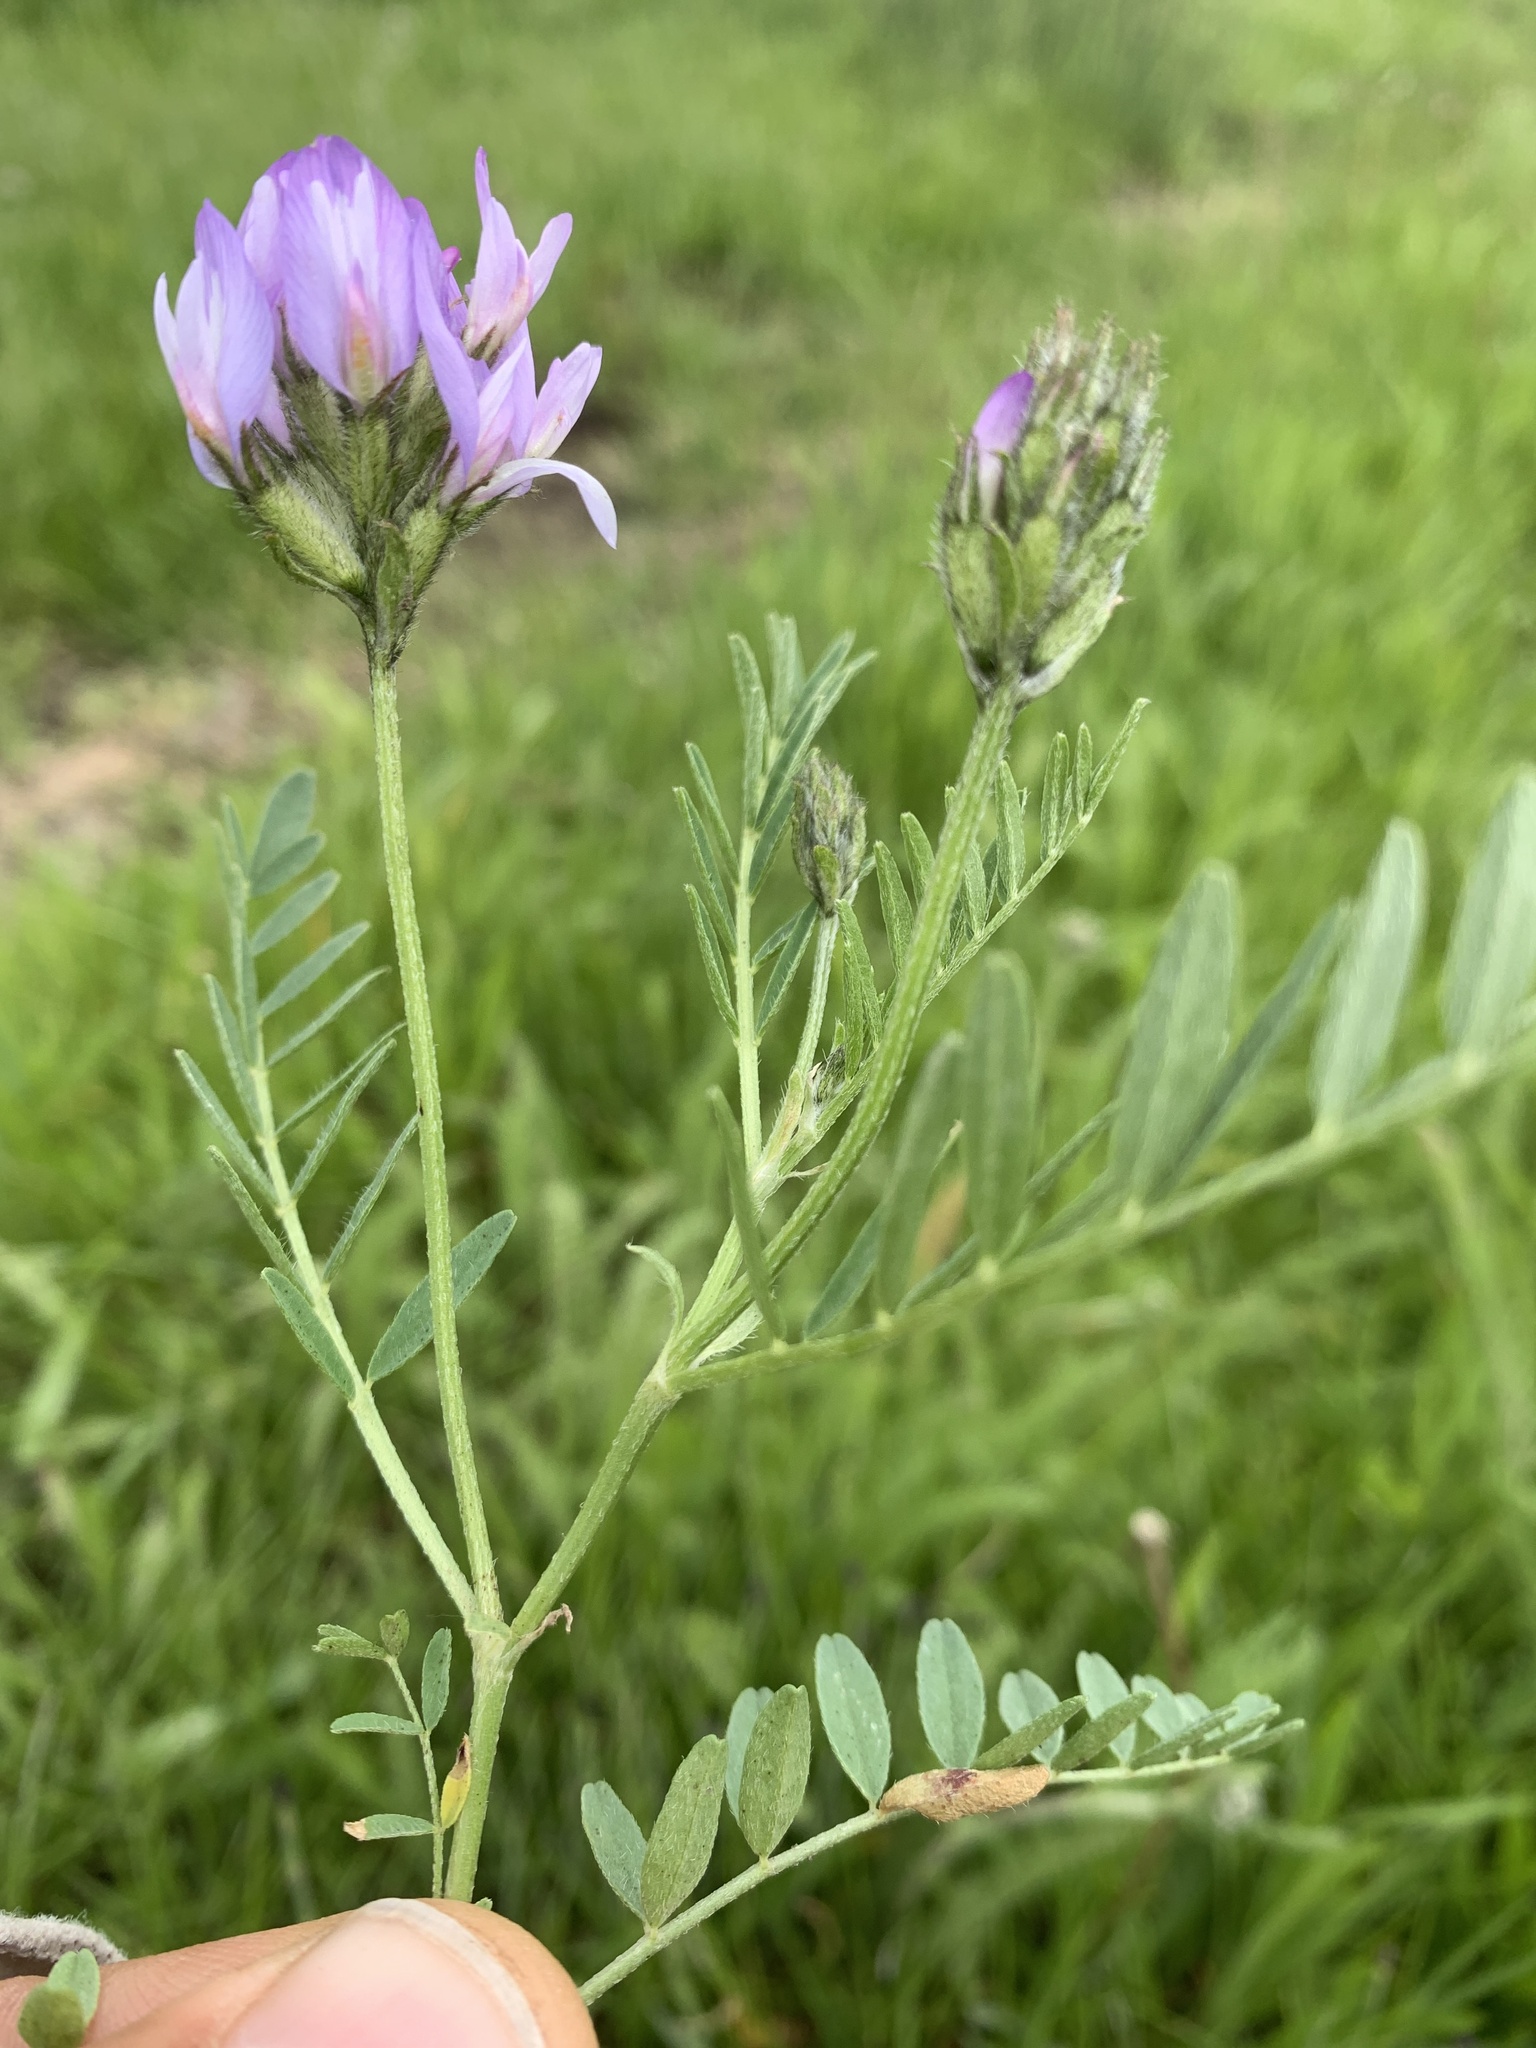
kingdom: Plantae
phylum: Tracheophyta
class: Magnoliopsida
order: Fabales
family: Fabaceae
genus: Astragalus
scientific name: Astragalus agrestis
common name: Field milk-vetch
